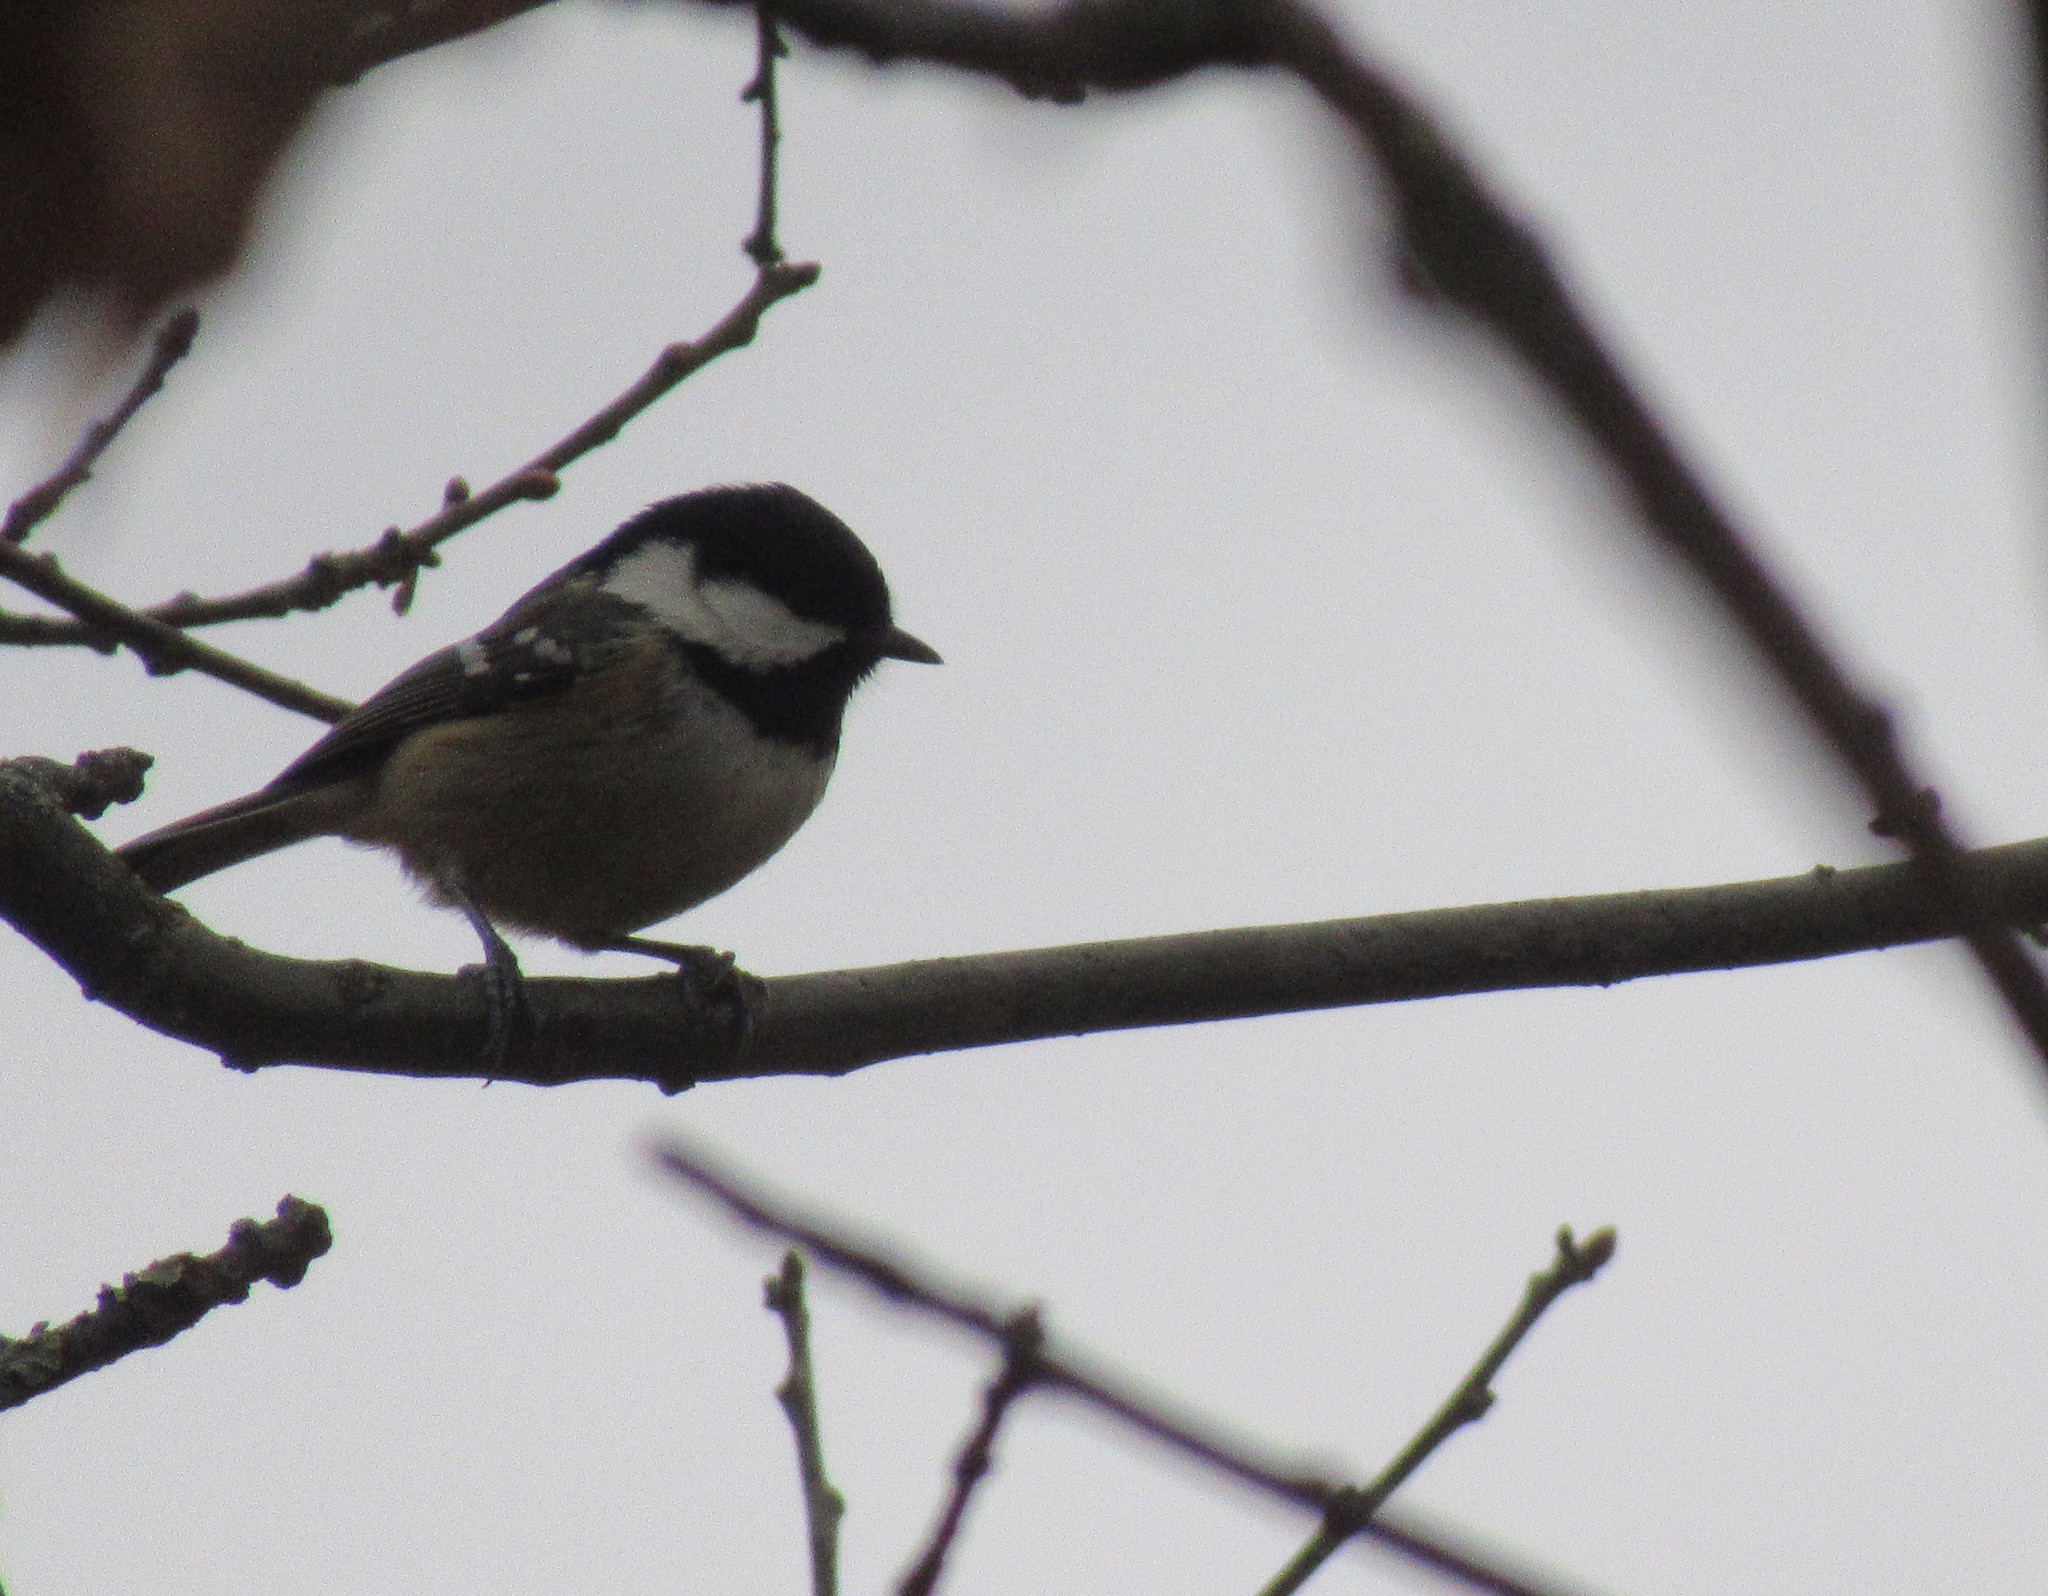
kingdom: Animalia
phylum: Chordata
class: Aves
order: Passeriformes
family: Paridae
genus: Periparus
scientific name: Periparus ater
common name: Coal tit
